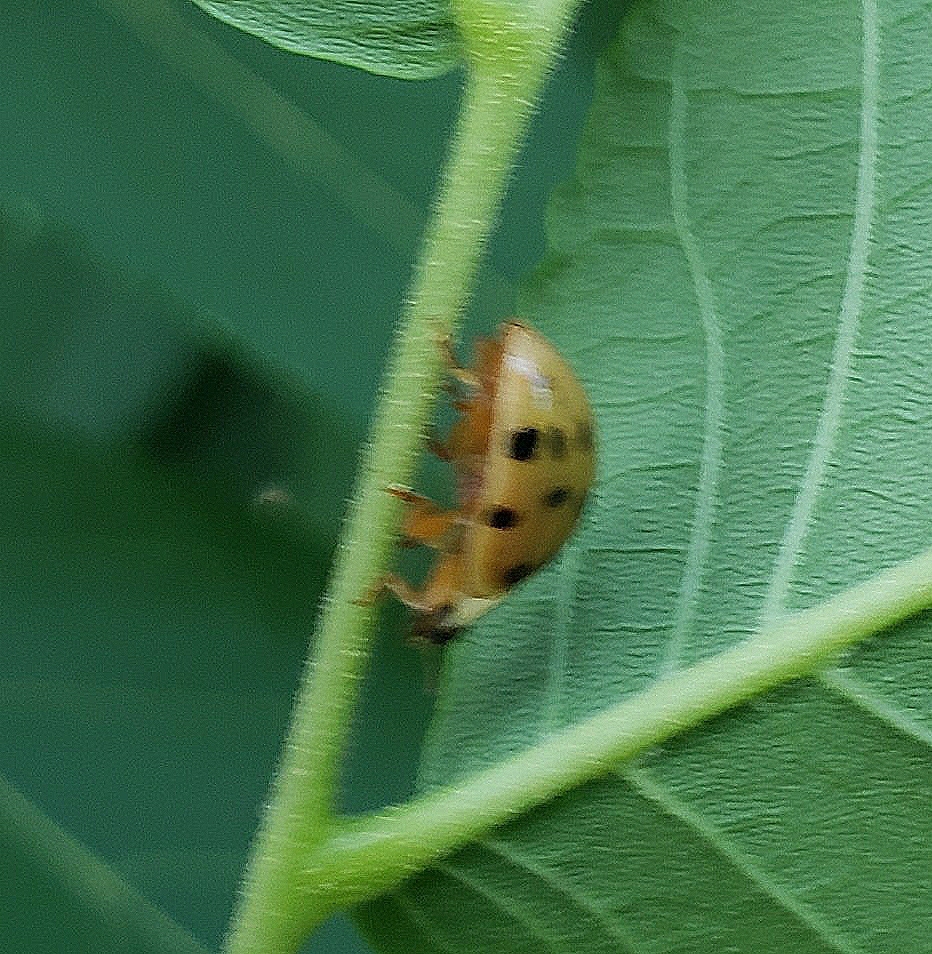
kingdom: Animalia
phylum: Arthropoda
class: Insecta
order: Coleoptera
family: Coccinellidae
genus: Harmonia
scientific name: Harmonia axyridis
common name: Harlequin ladybird
